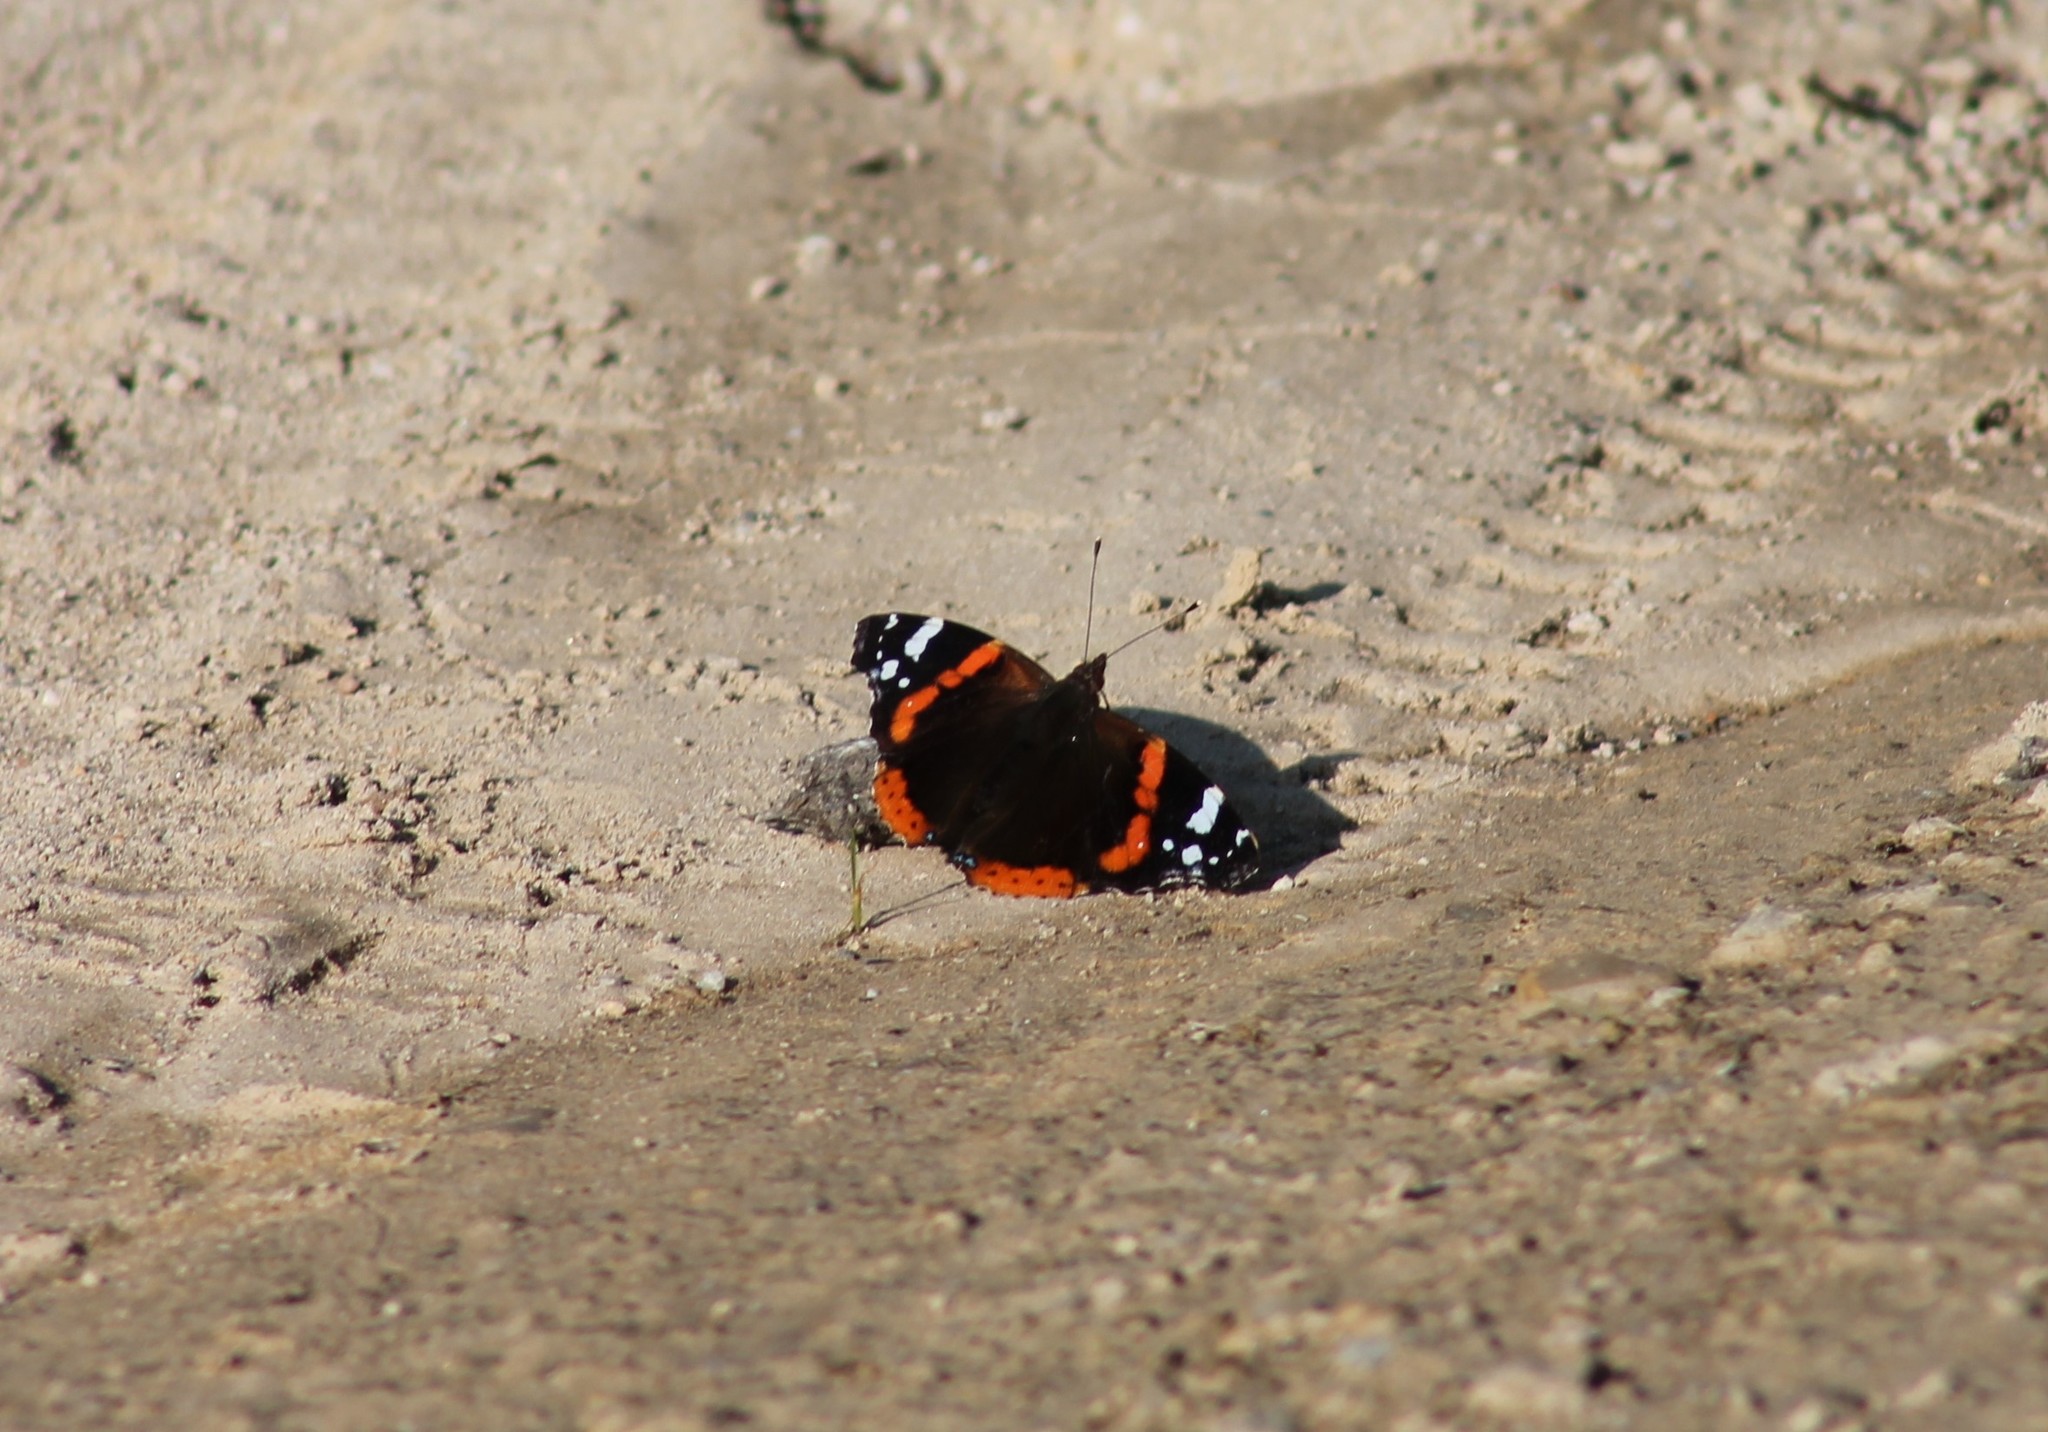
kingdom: Animalia
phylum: Arthropoda
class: Insecta
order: Lepidoptera
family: Nymphalidae
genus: Vanessa
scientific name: Vanessa atalanta
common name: Red admiral
